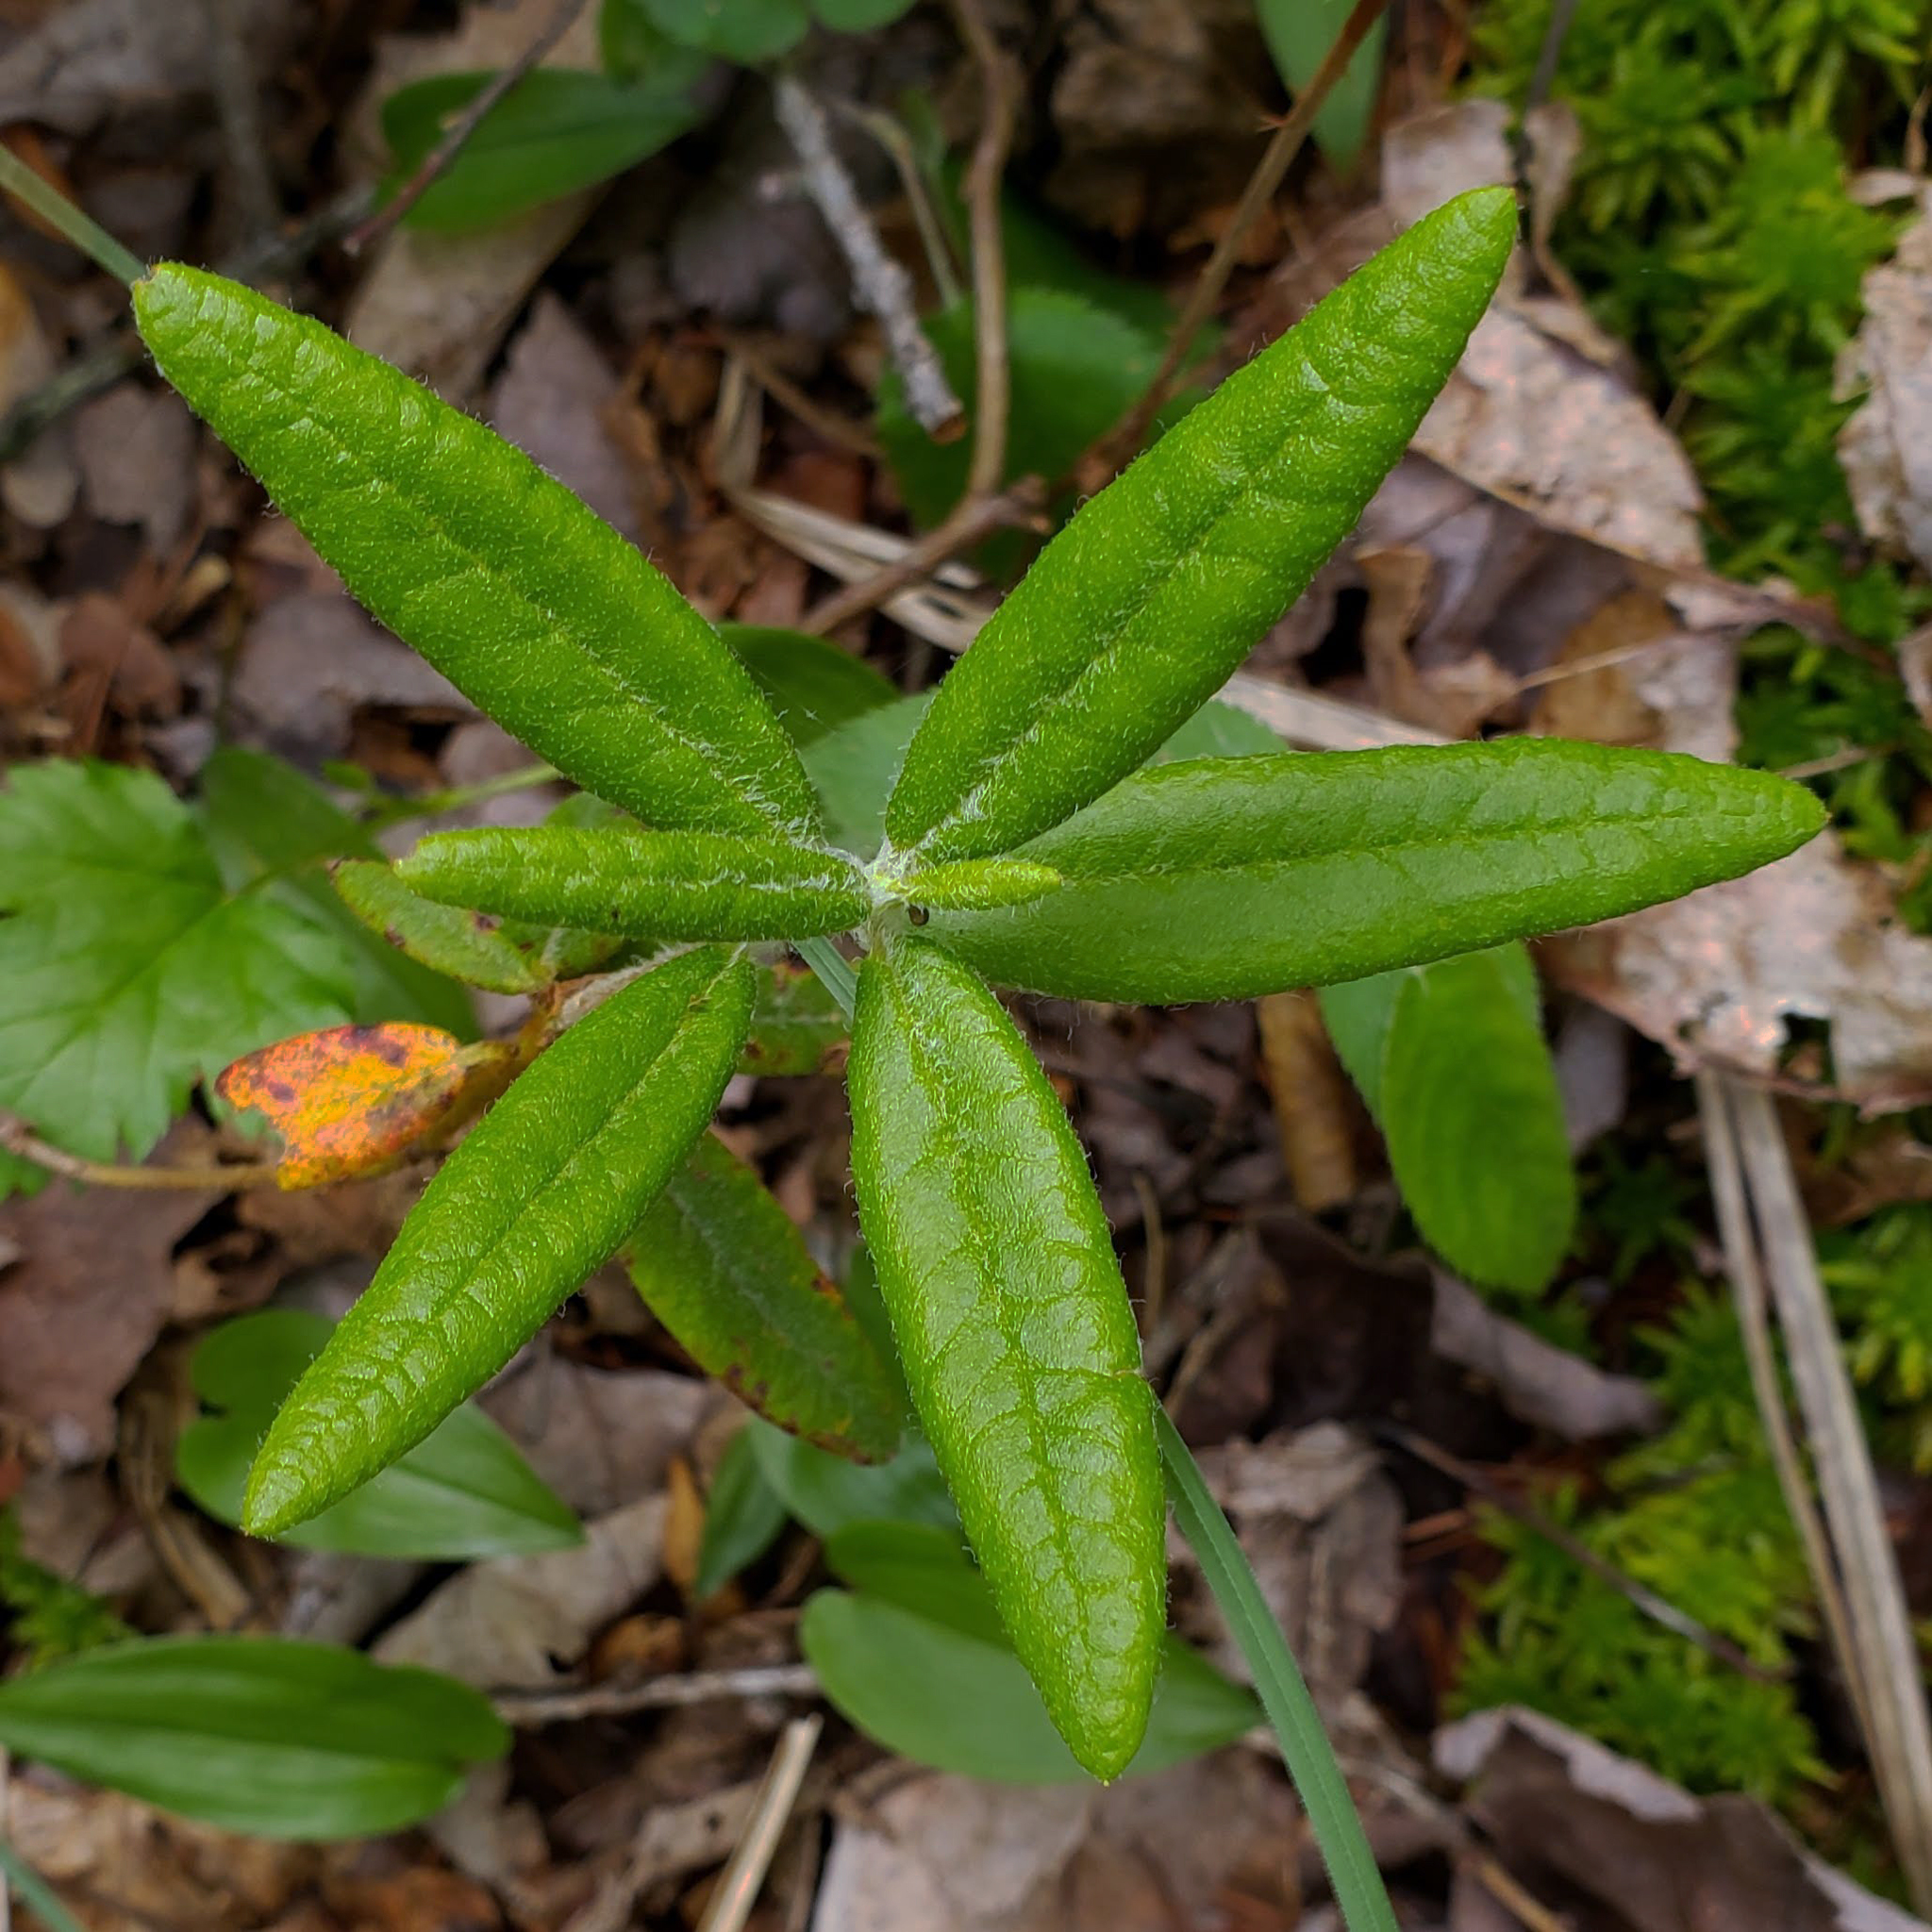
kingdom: Plantae
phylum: Tracheophyta
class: Magnoliopsida
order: Ericales
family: Ericaceae
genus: Rhododendron
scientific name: Rhododendron groenlandicum
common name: Bog labrador tea
